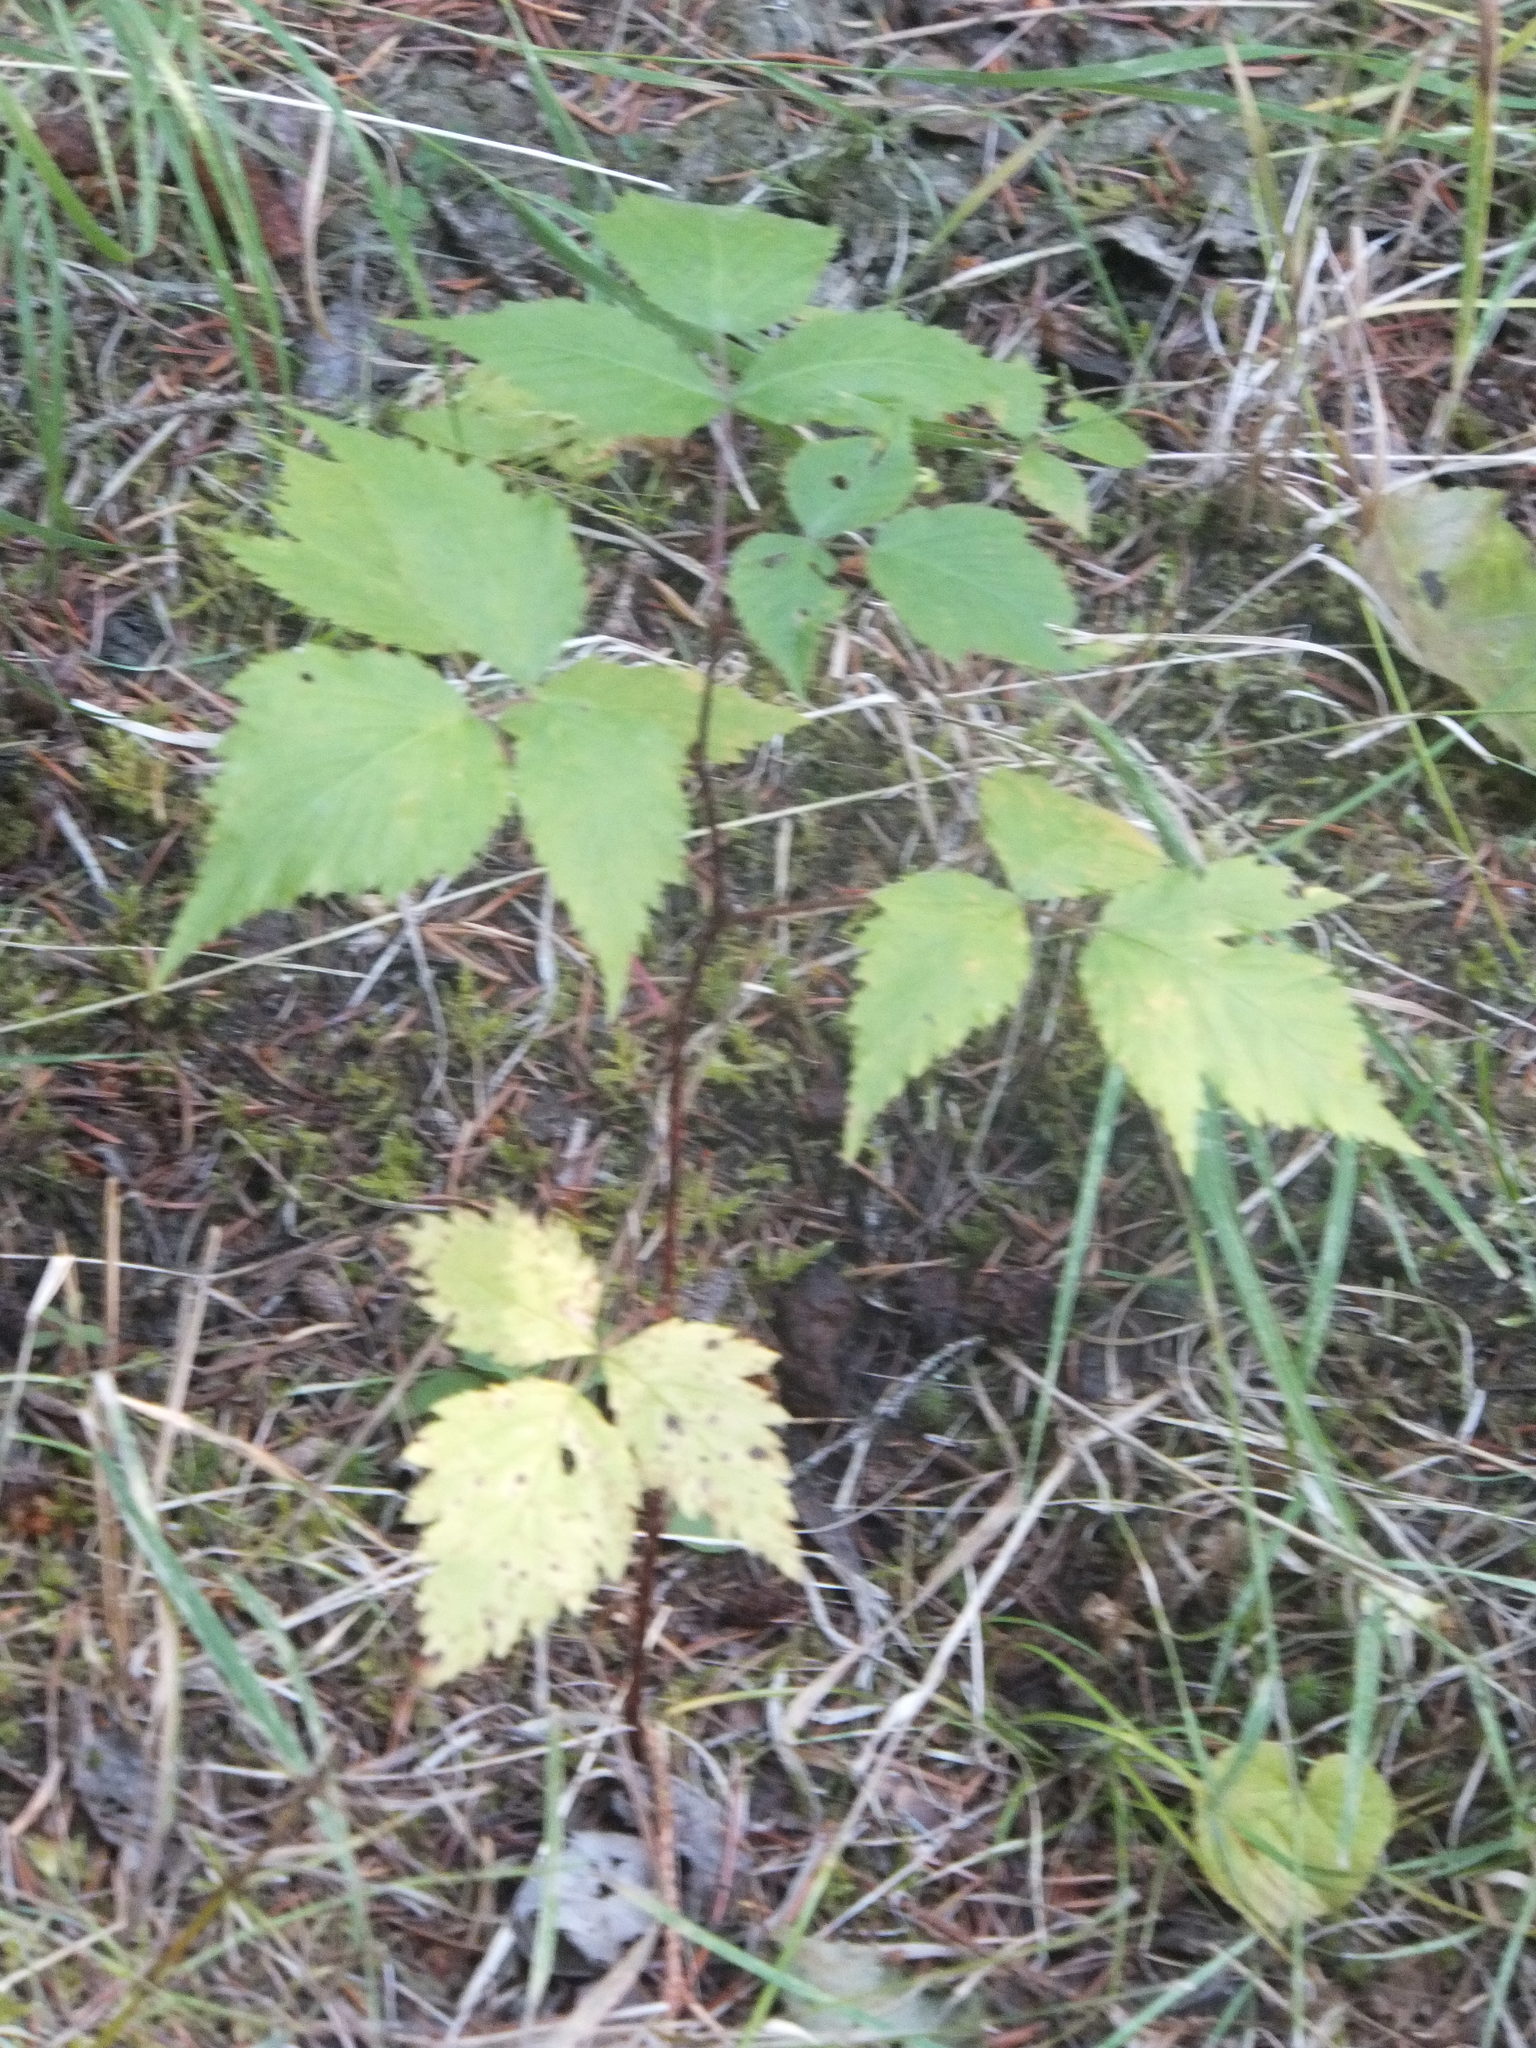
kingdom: Plantae
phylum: Tracheophyta
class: Magnoliopsida
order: Rosales
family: Rosaceae
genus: Rubus
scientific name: Rubus idaeus
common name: Raspberry
